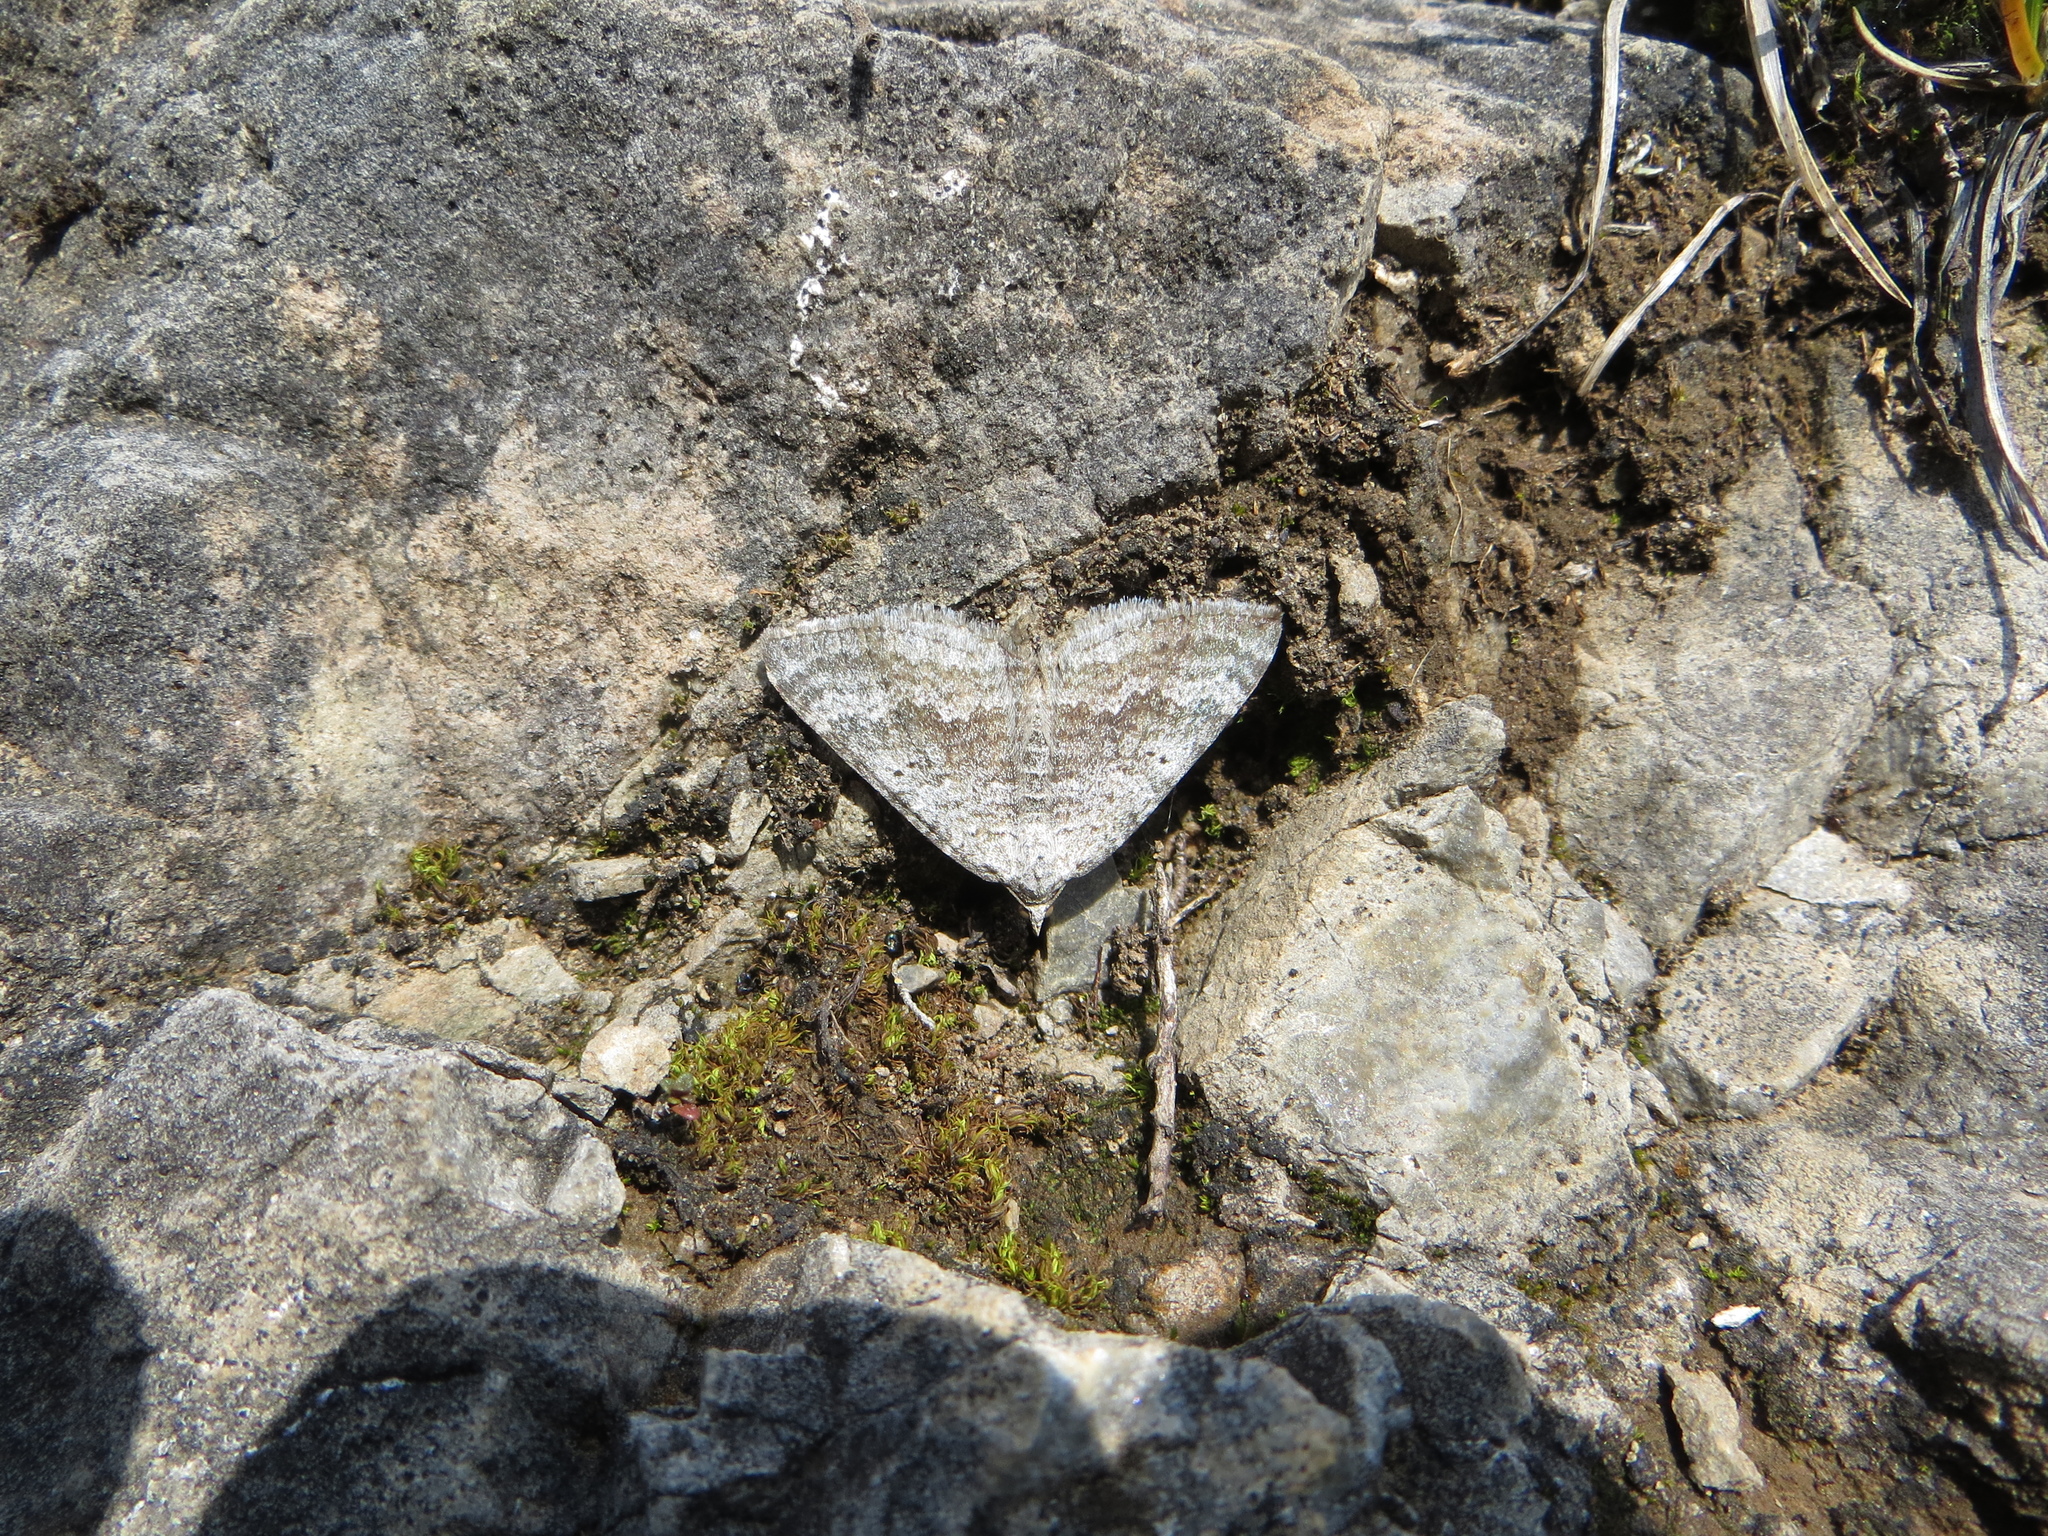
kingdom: Animalia
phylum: Arthropoda
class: Insecta
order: Lepidoptera
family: Geometridae
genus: Scotopteryx
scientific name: Scotopteryx bipunctaria
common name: Chalk carpet
